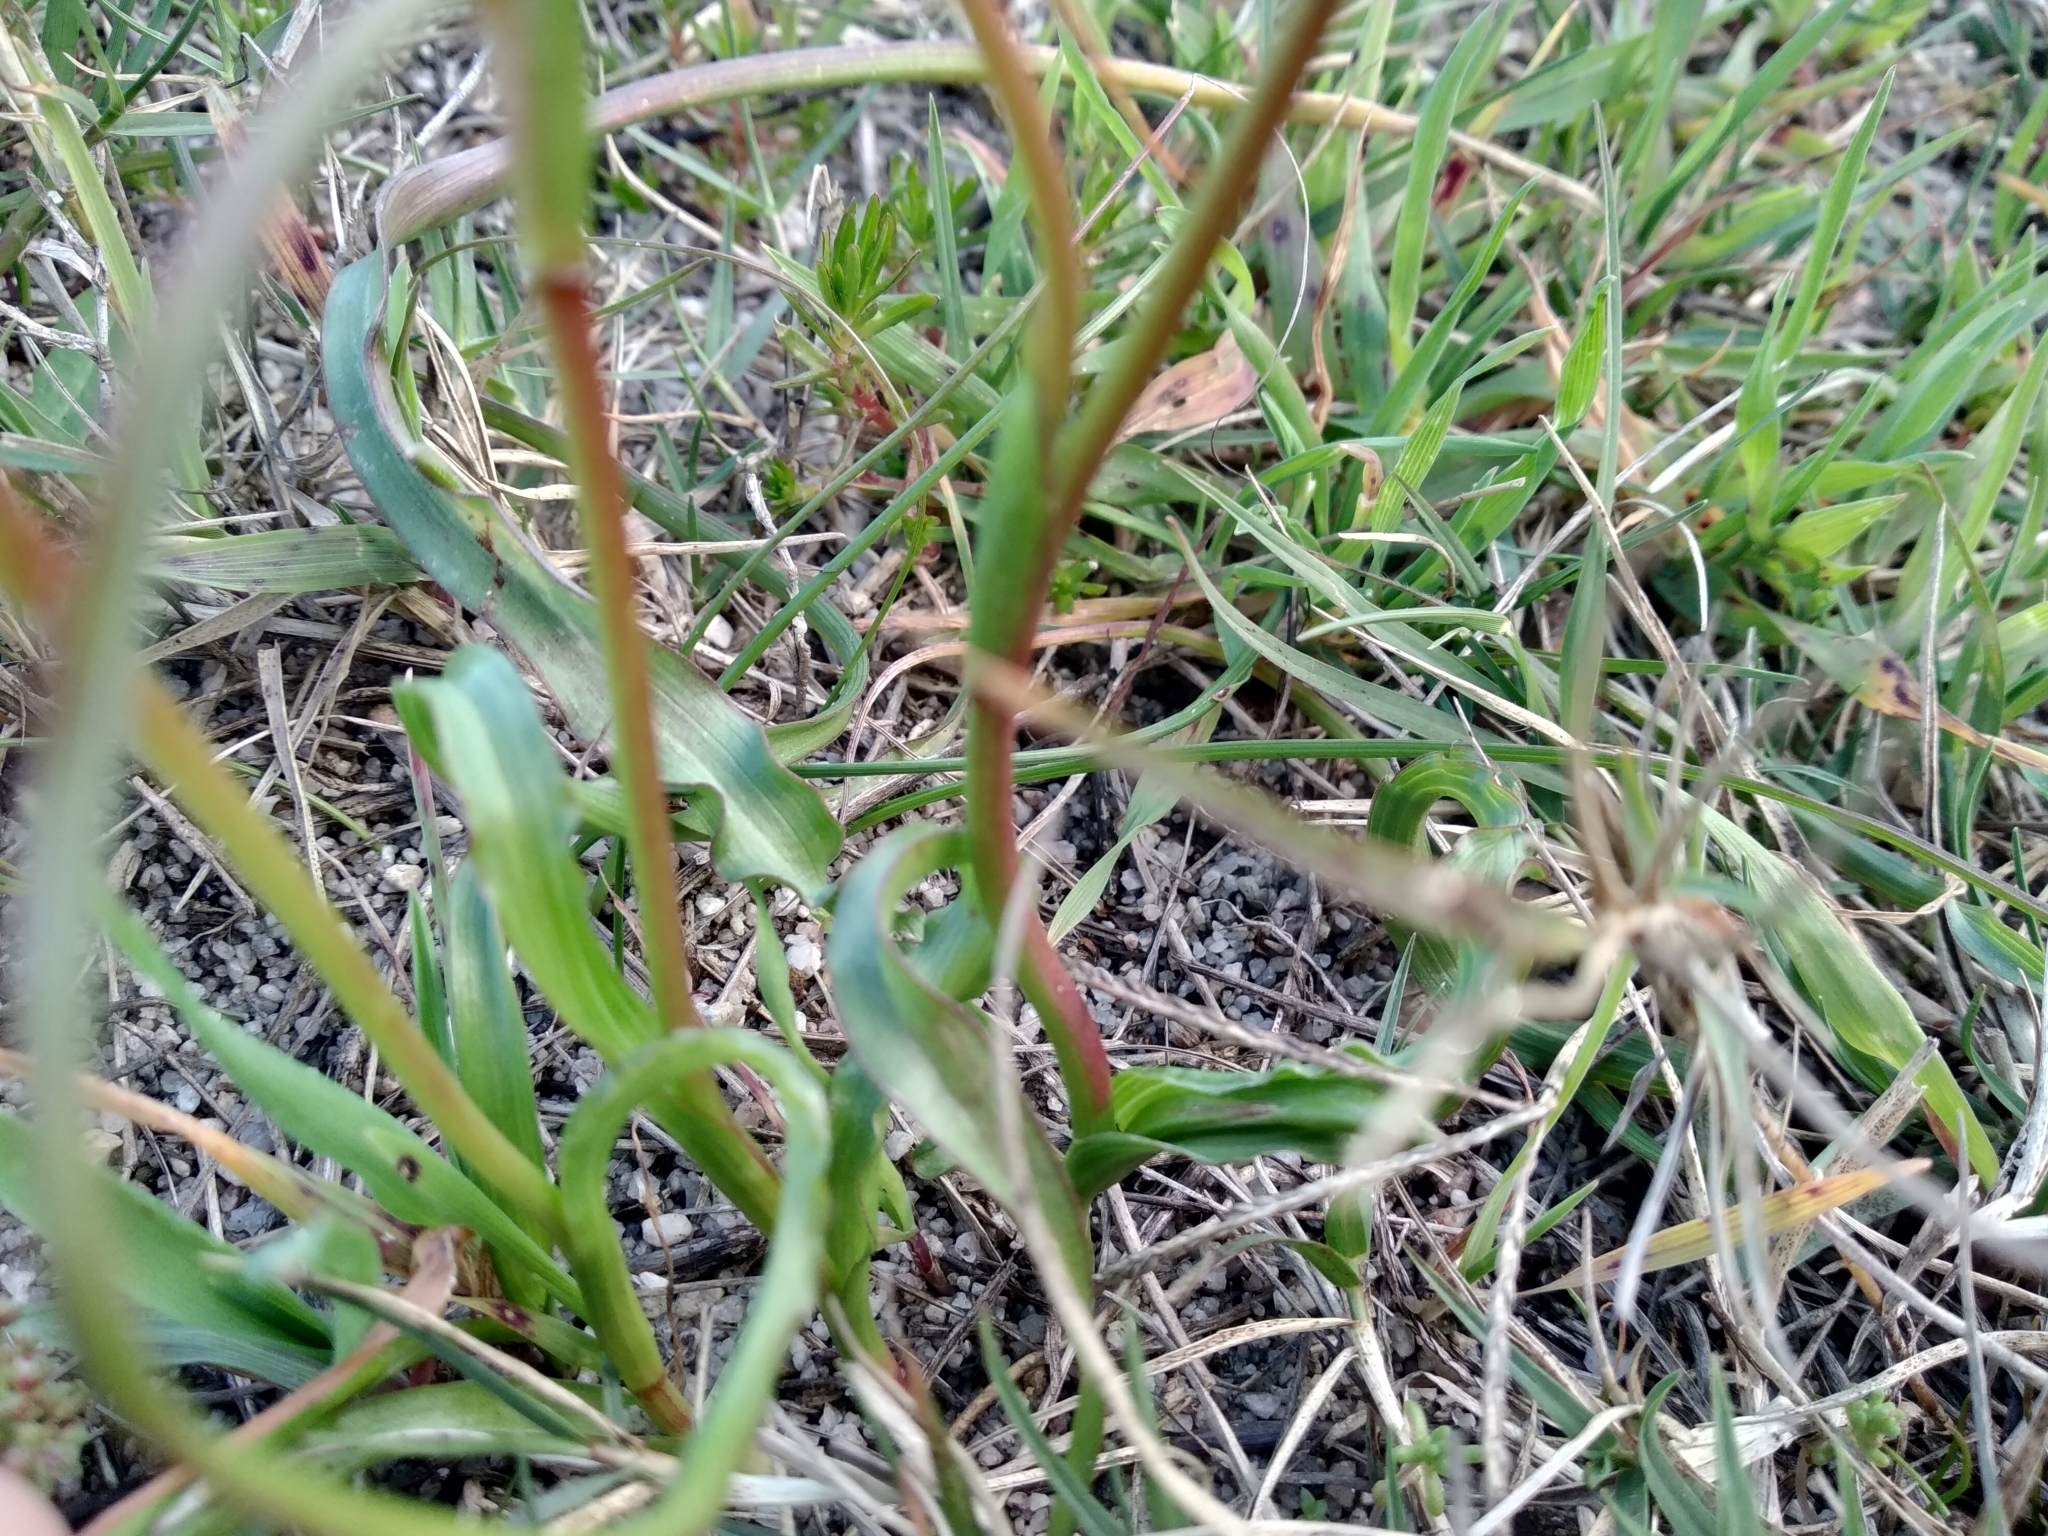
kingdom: Plantae
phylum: Tracheophyta
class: Liliopsida
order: Asparagales
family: Iridaceae
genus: Moraea
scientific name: Moraea gawleri
